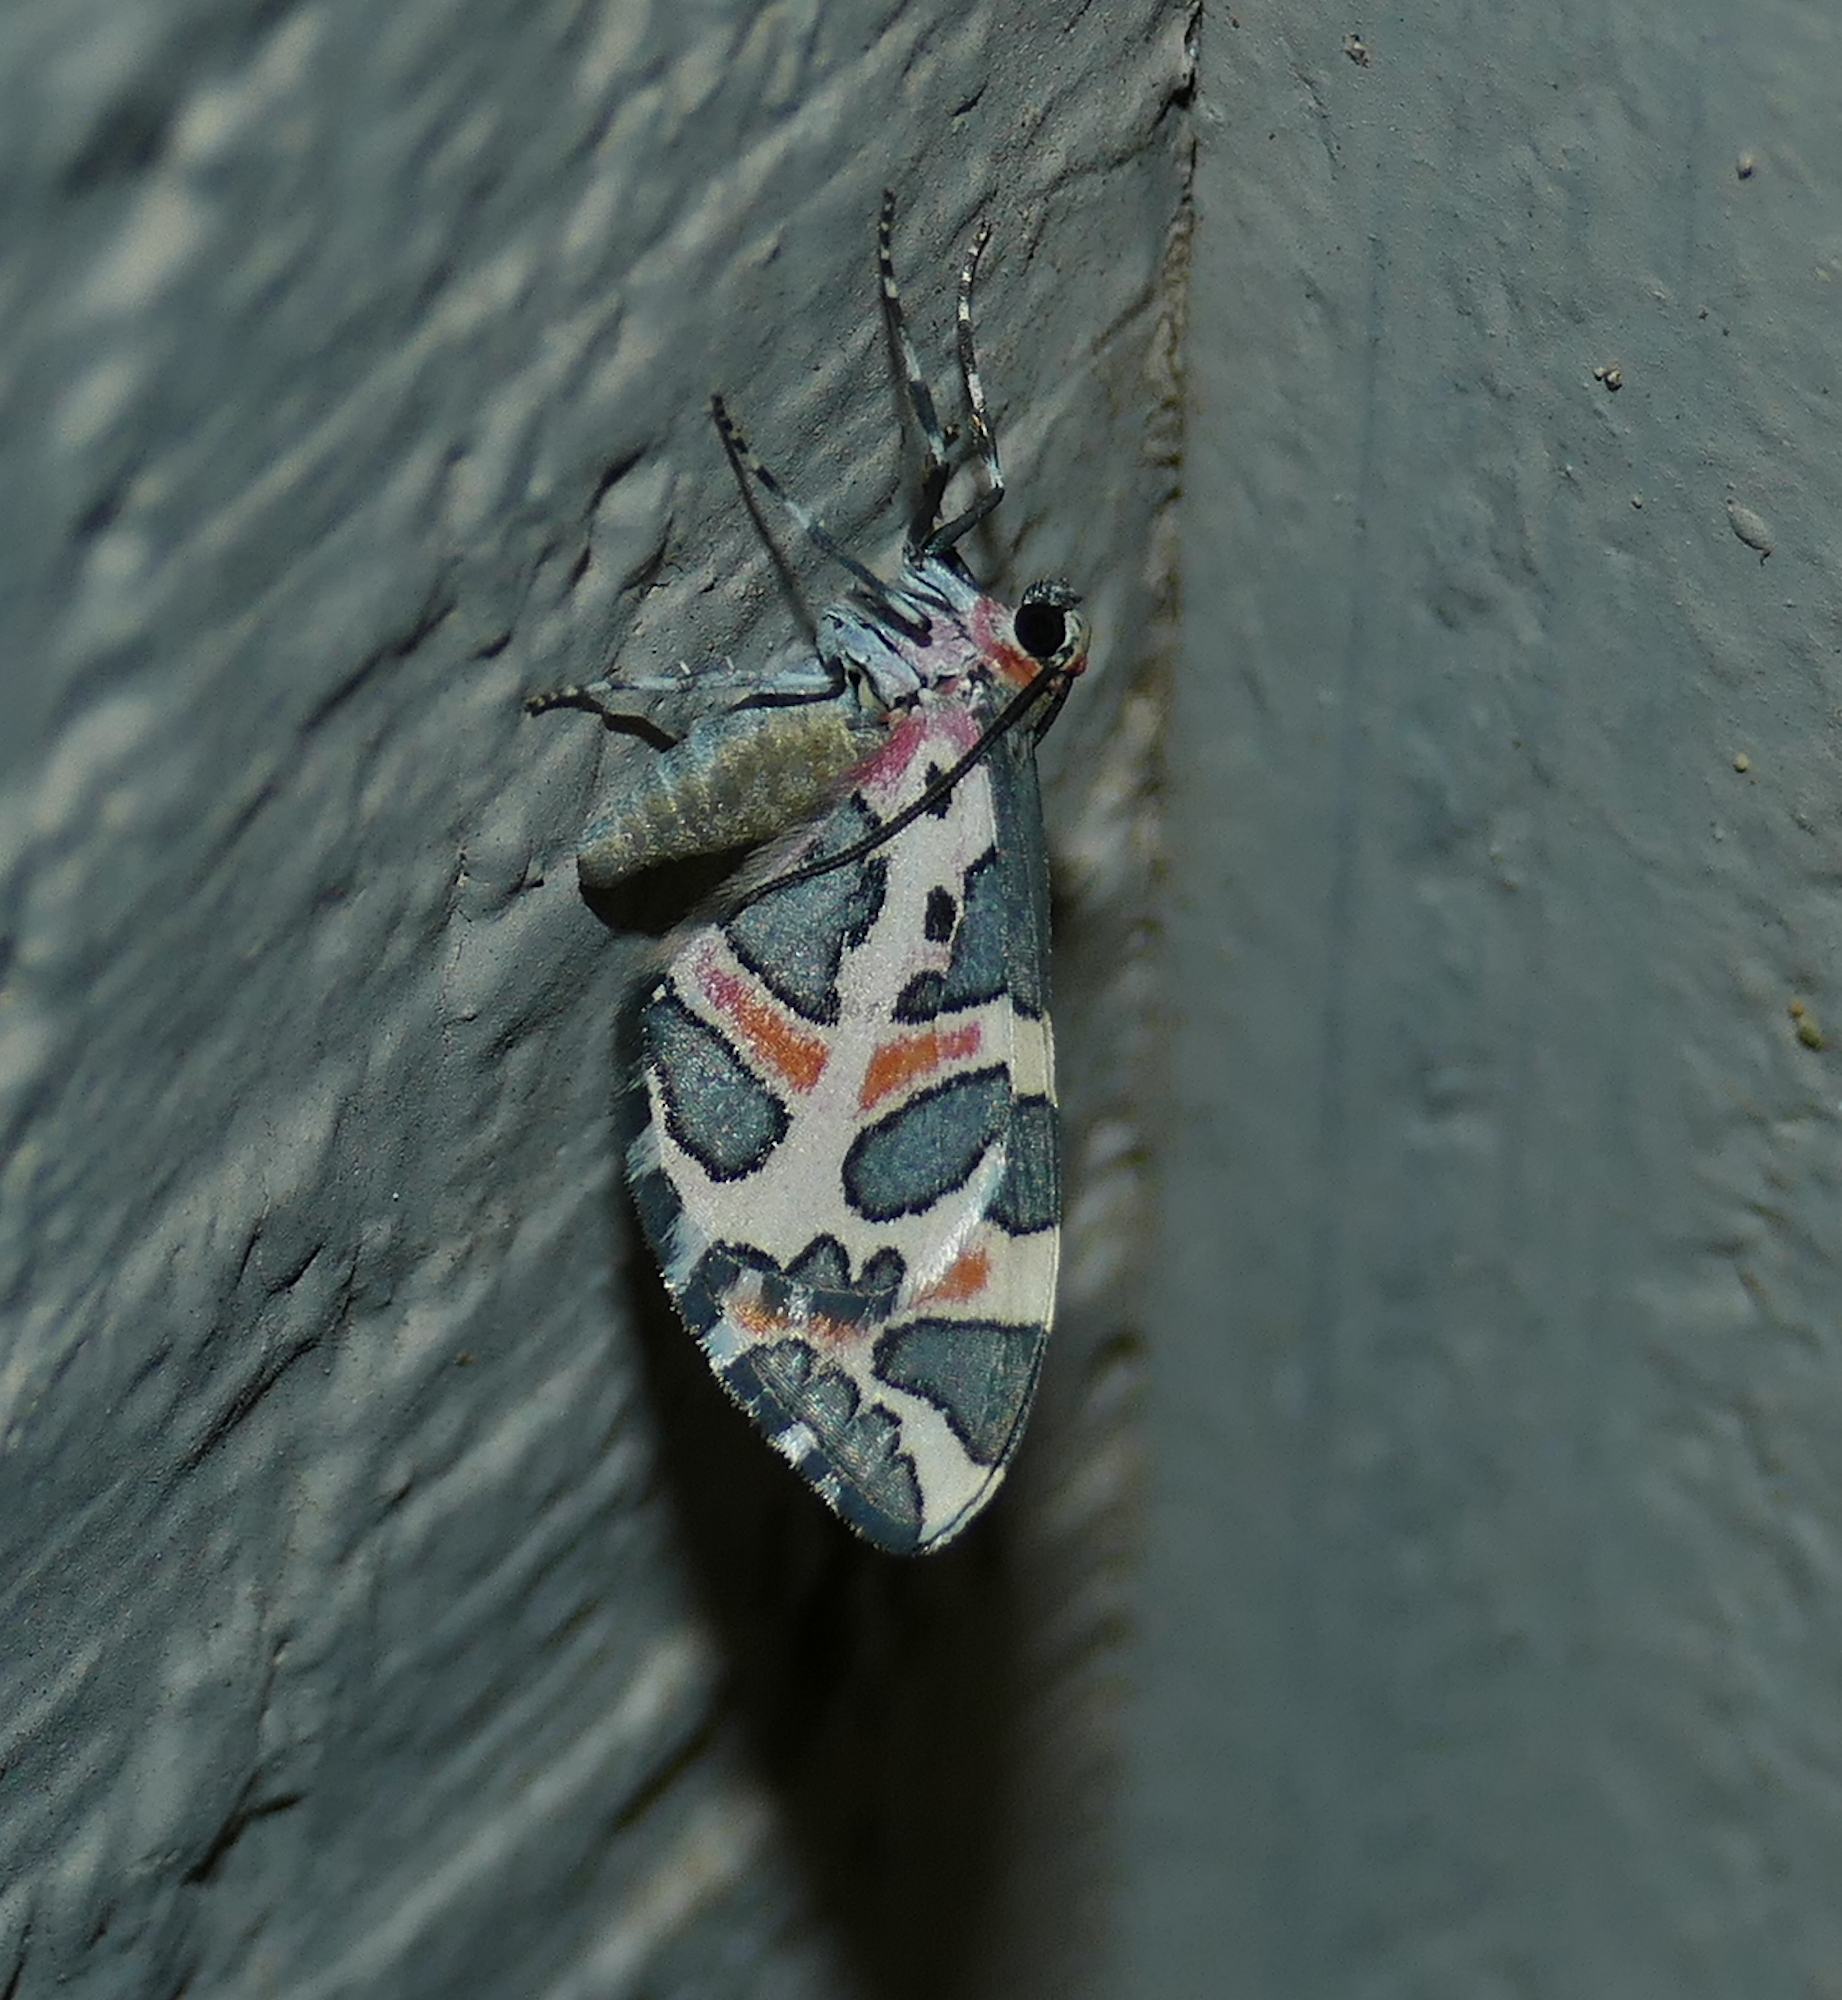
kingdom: Animalia
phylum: Arthropoda
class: Insecta
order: Lepidoptera
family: Geometridae
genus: Stamnodes
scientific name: Stamnodes deceptiva
